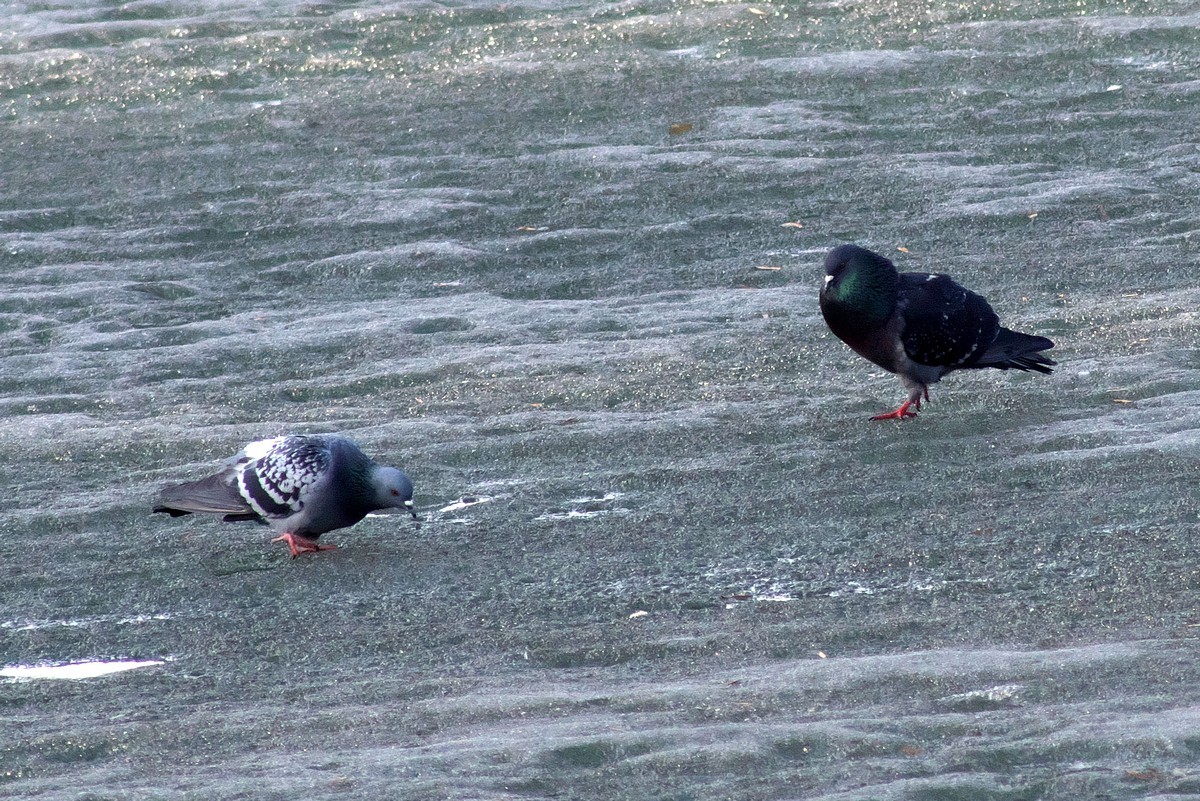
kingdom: Animalia
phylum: Chordata
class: Aves
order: Columbiformes
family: Columbidae
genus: Columba
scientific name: Columba livia
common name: Rock pigeon
